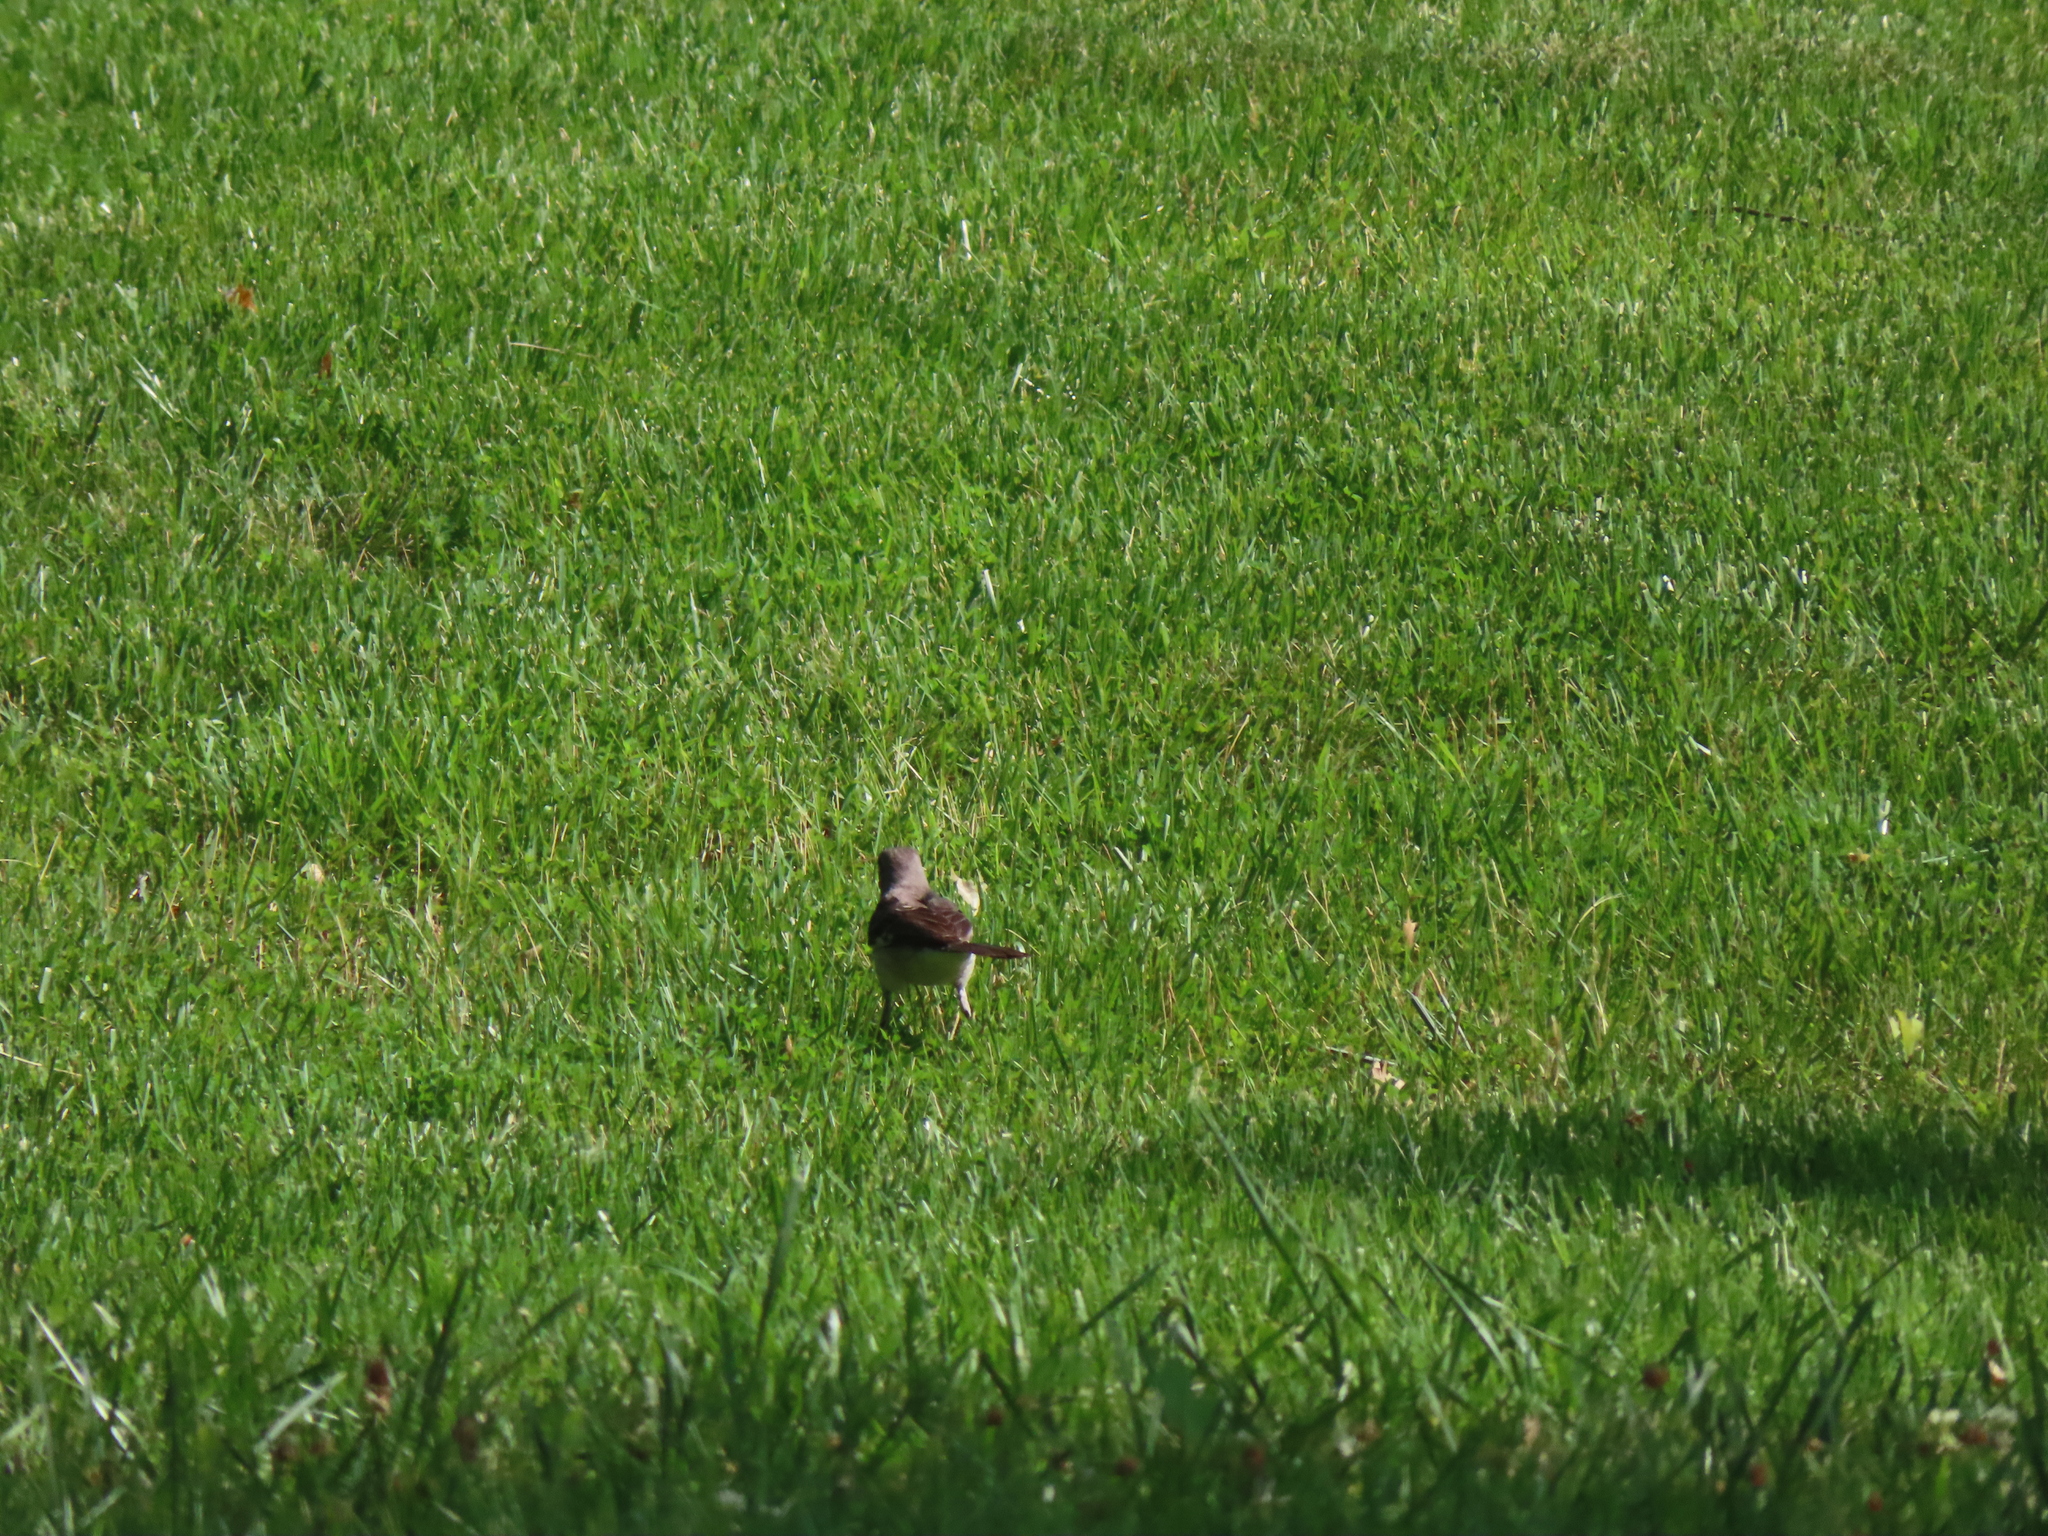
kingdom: Animalia
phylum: Chordata
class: Aves
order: Passeriformes
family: Mimidae
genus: Mimus
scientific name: Mimus polyglottos
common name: Northern mockingbird
